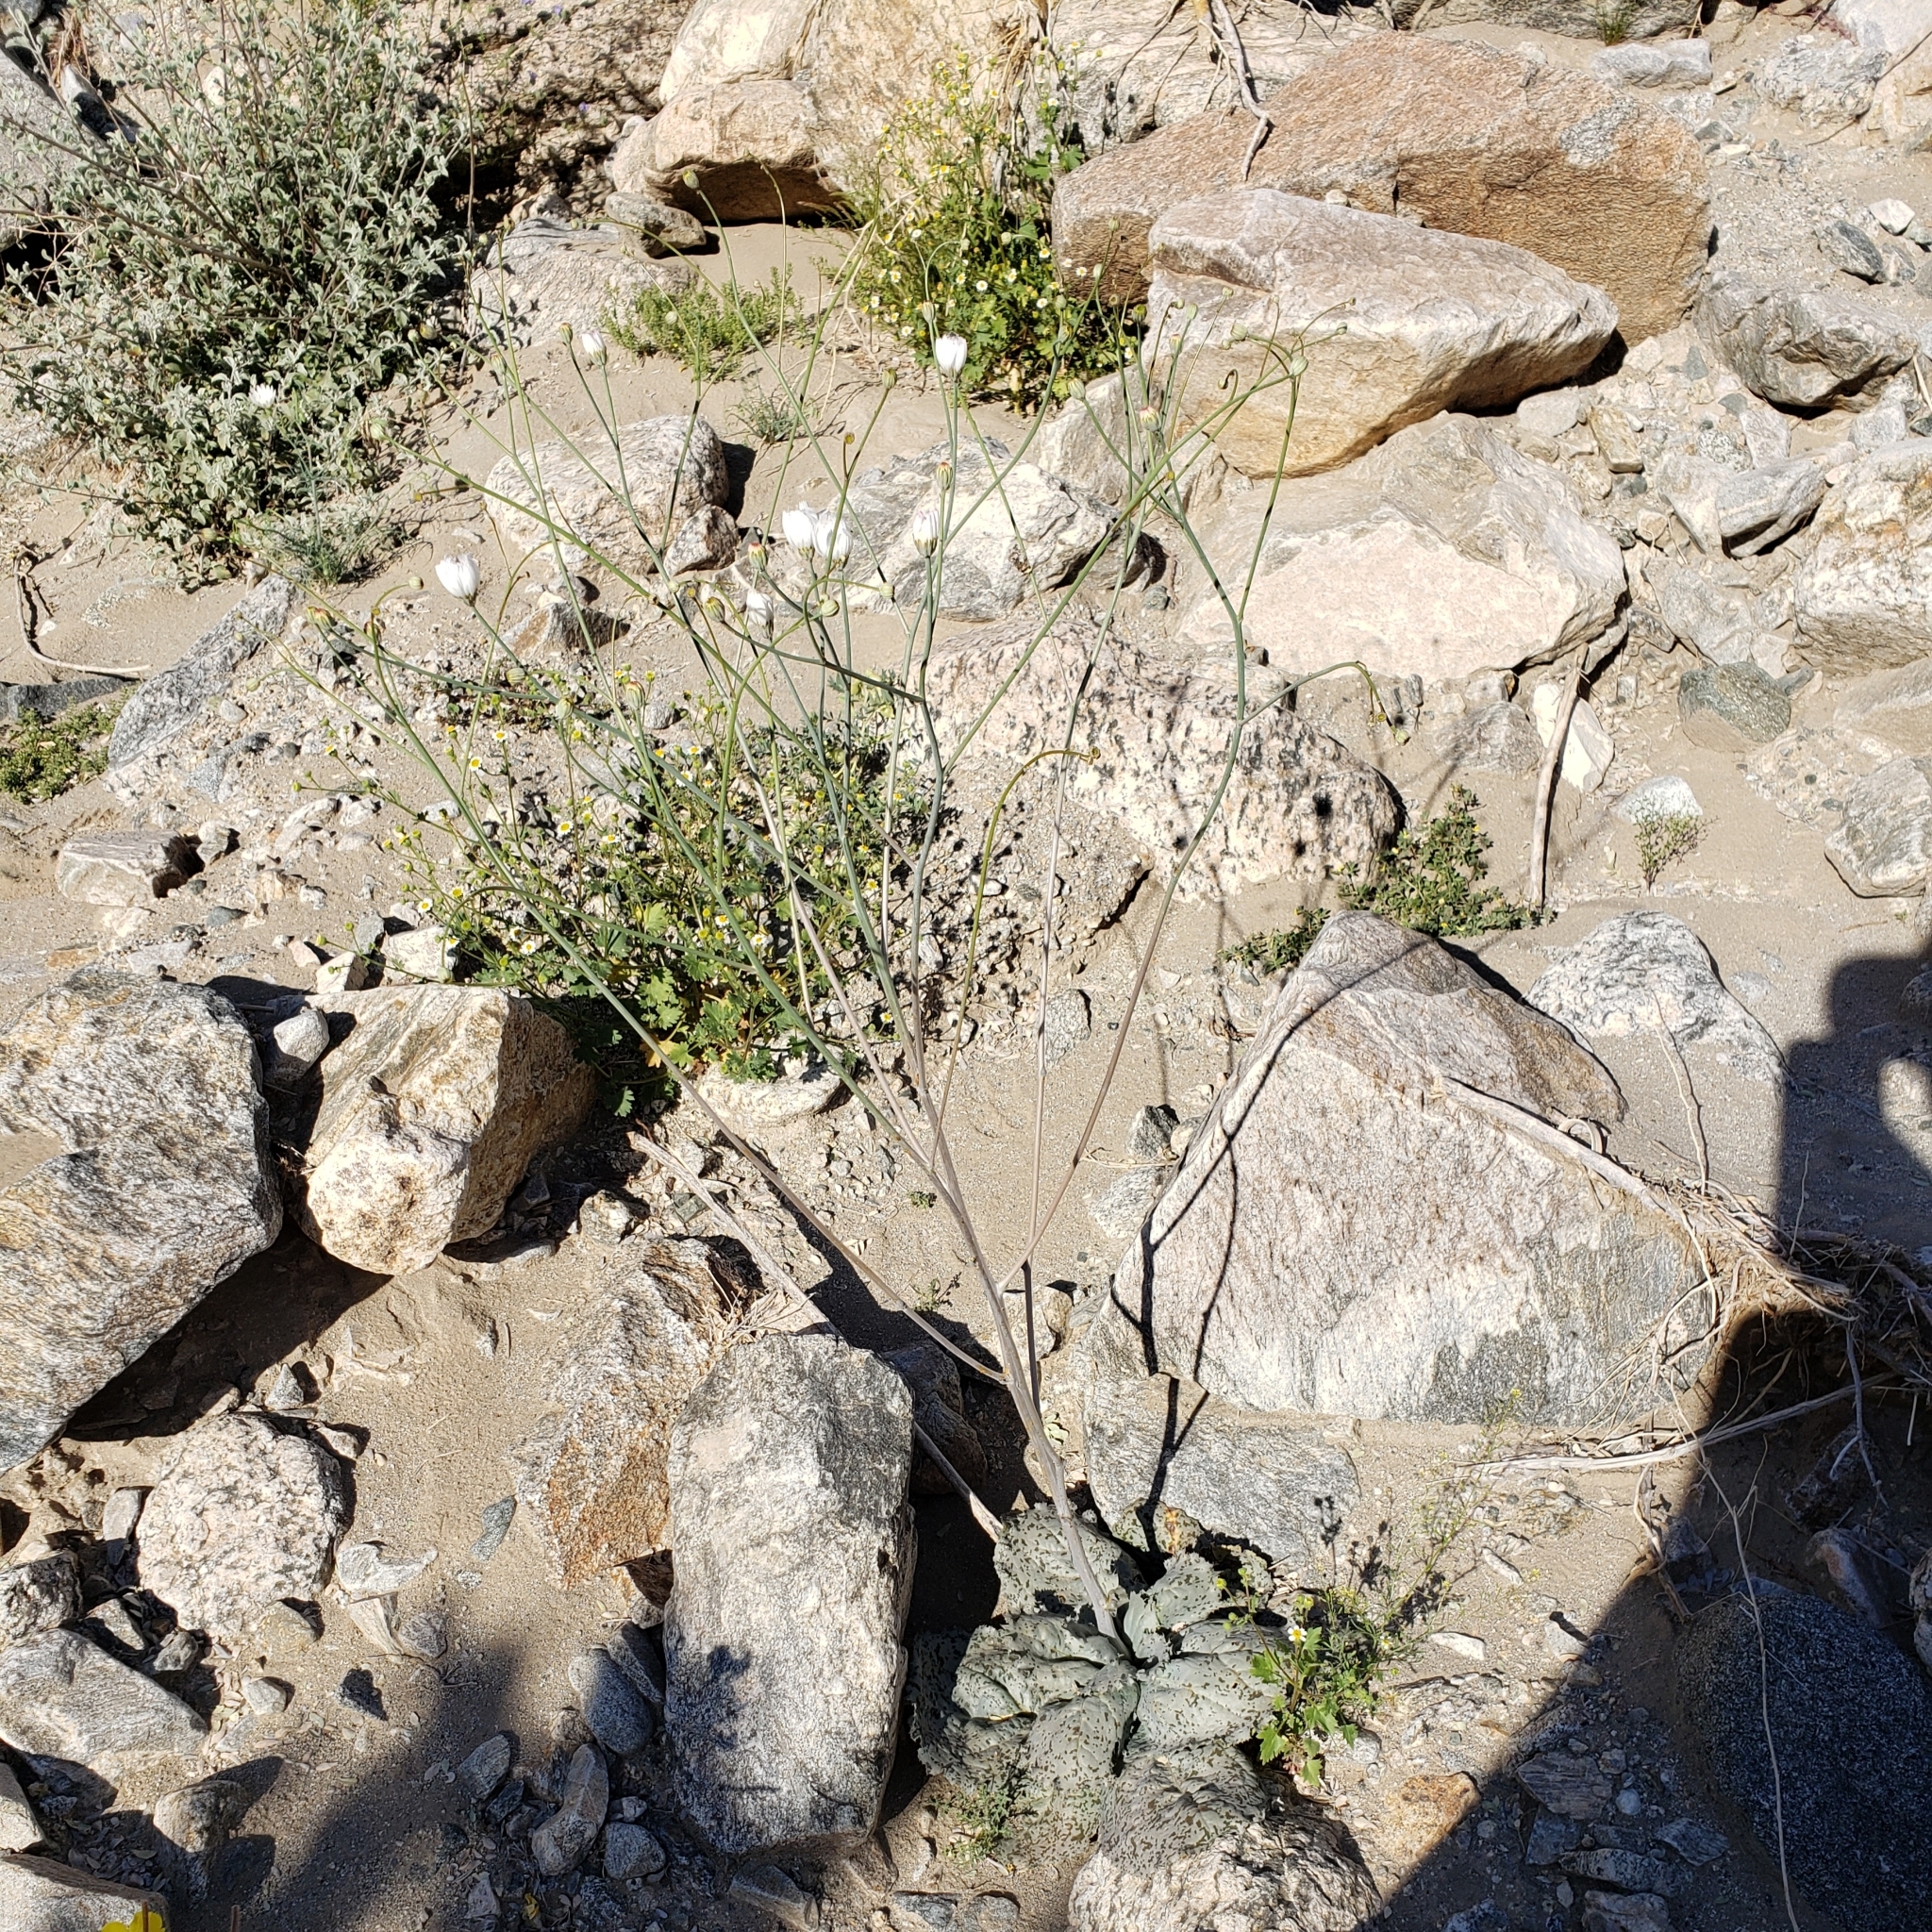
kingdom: Plantae
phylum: Tracheophyta
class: Magnoliopsida
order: Asterales
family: Asteraceae
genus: Atrichoseris
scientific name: Atrichoseris platyphylla
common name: Tobaccoweed
